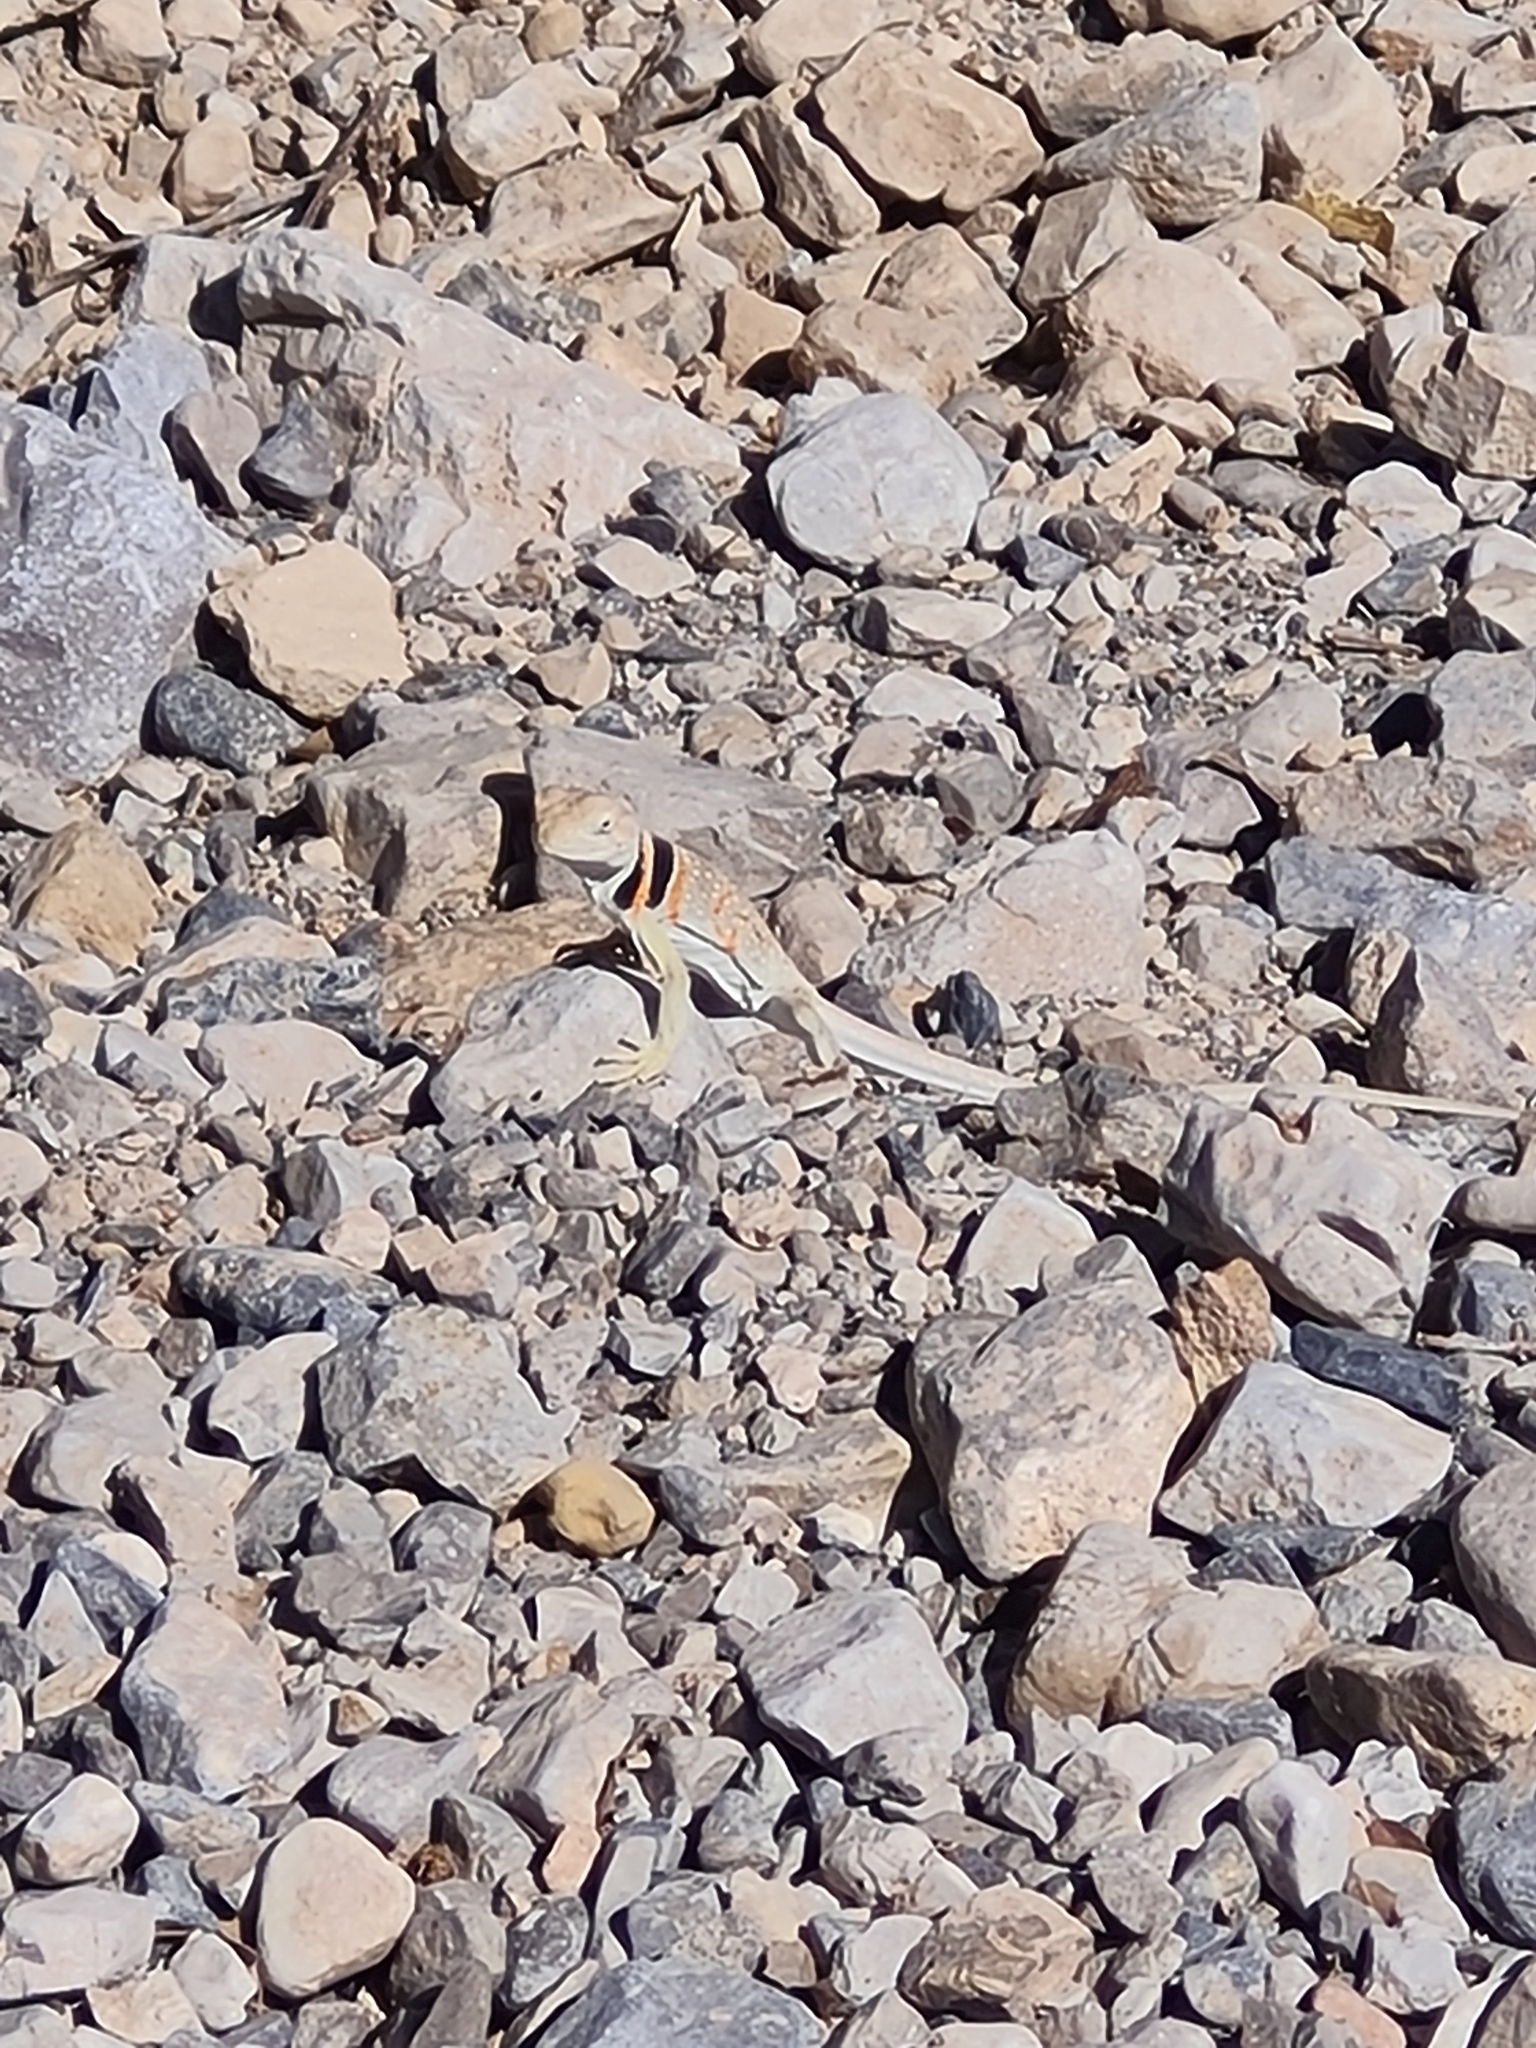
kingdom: Animalia
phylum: Chordata
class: Squamata
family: Crotaphytidae
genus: Crotaphytus
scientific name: Crotaphytus bicinctores
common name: Mojave black-collared lizard
